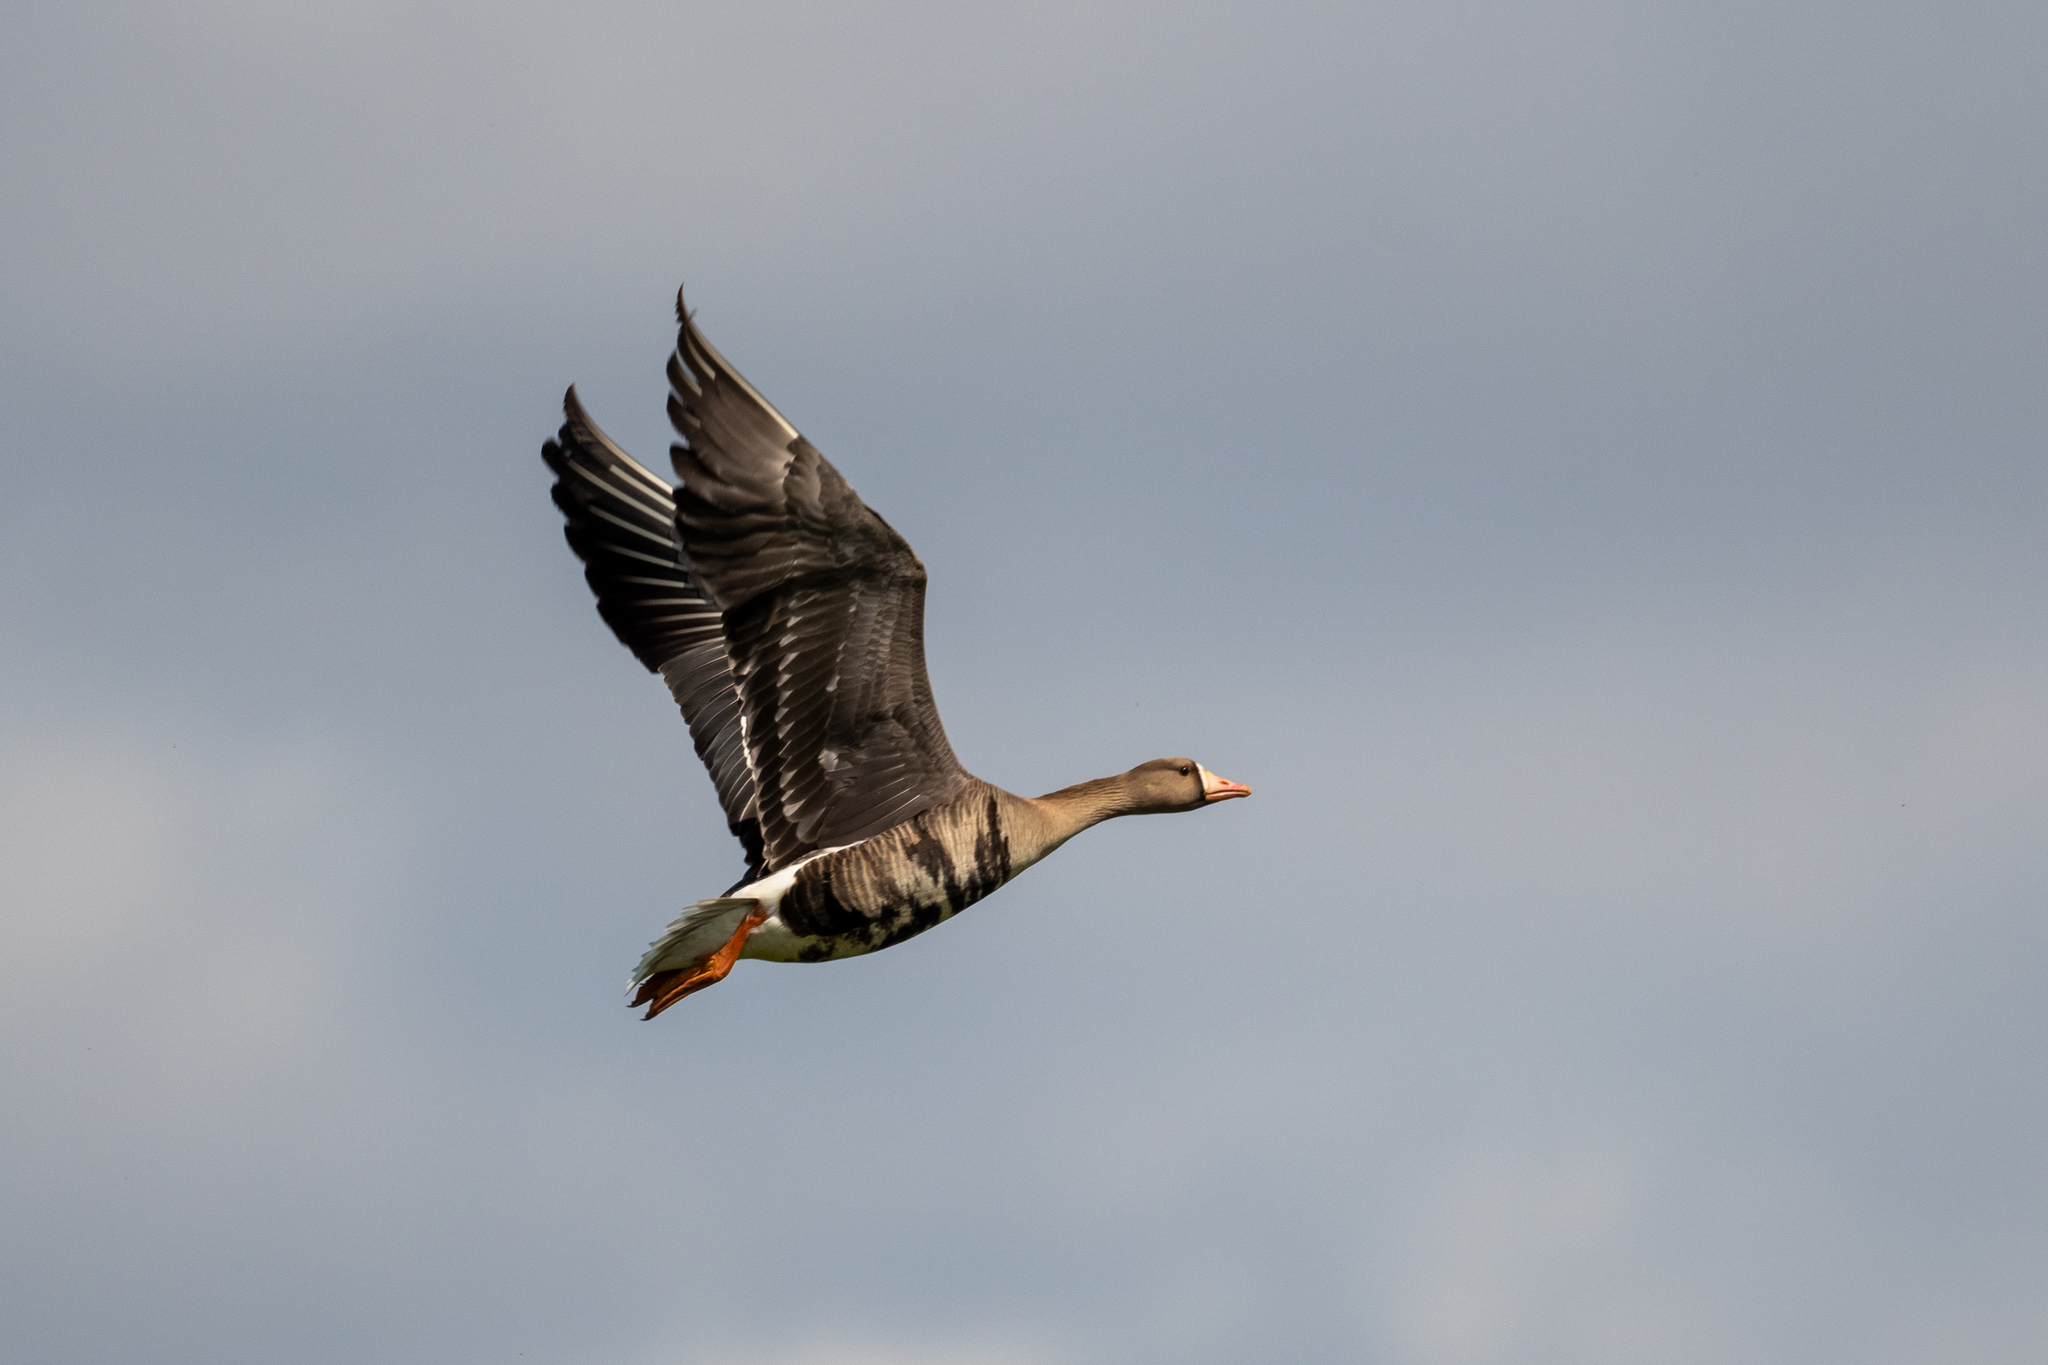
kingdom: Animalia
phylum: Chordata
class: Aves
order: Anseriformes
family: Anatidae
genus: Anser
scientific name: Anser albifrons
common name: Greater white-fronted goose
